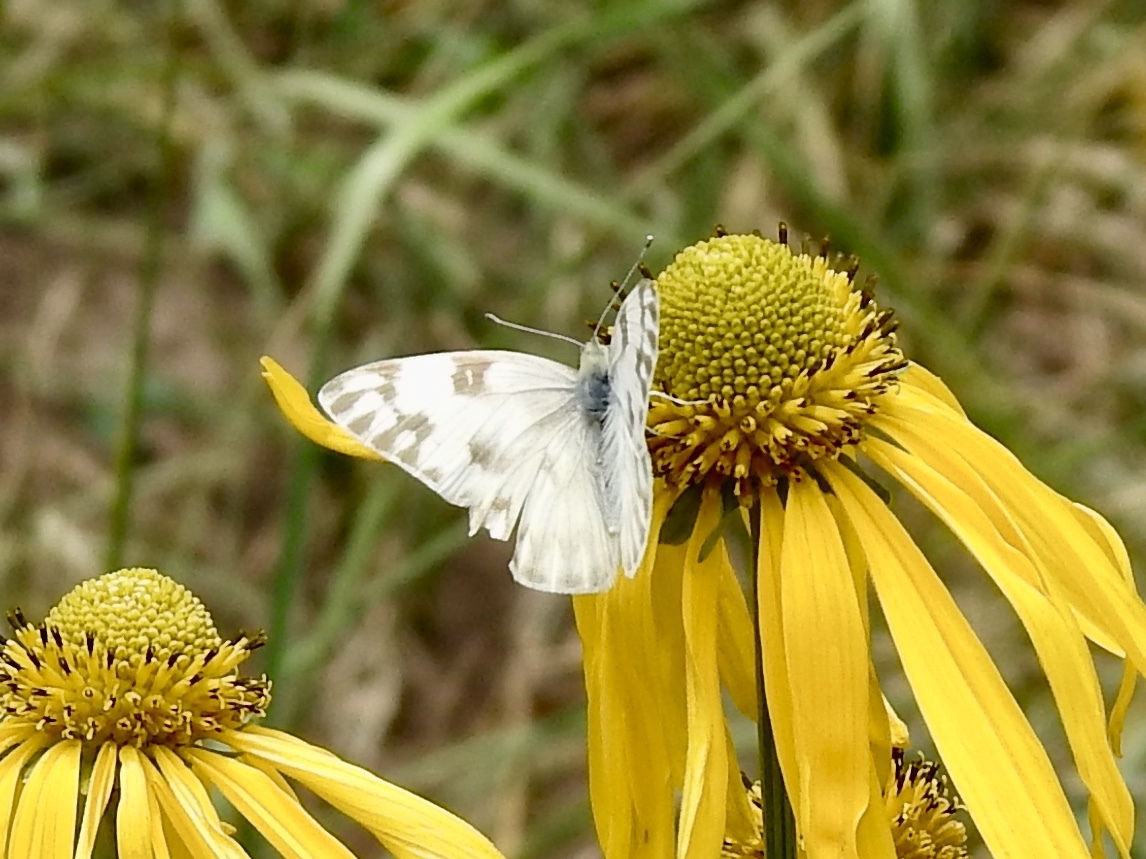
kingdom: Animalia
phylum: Arthropoda
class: Insecta
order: Lepidoptera
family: Pieridae
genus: Pontia
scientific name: Pontia protodice
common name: Checkered white
